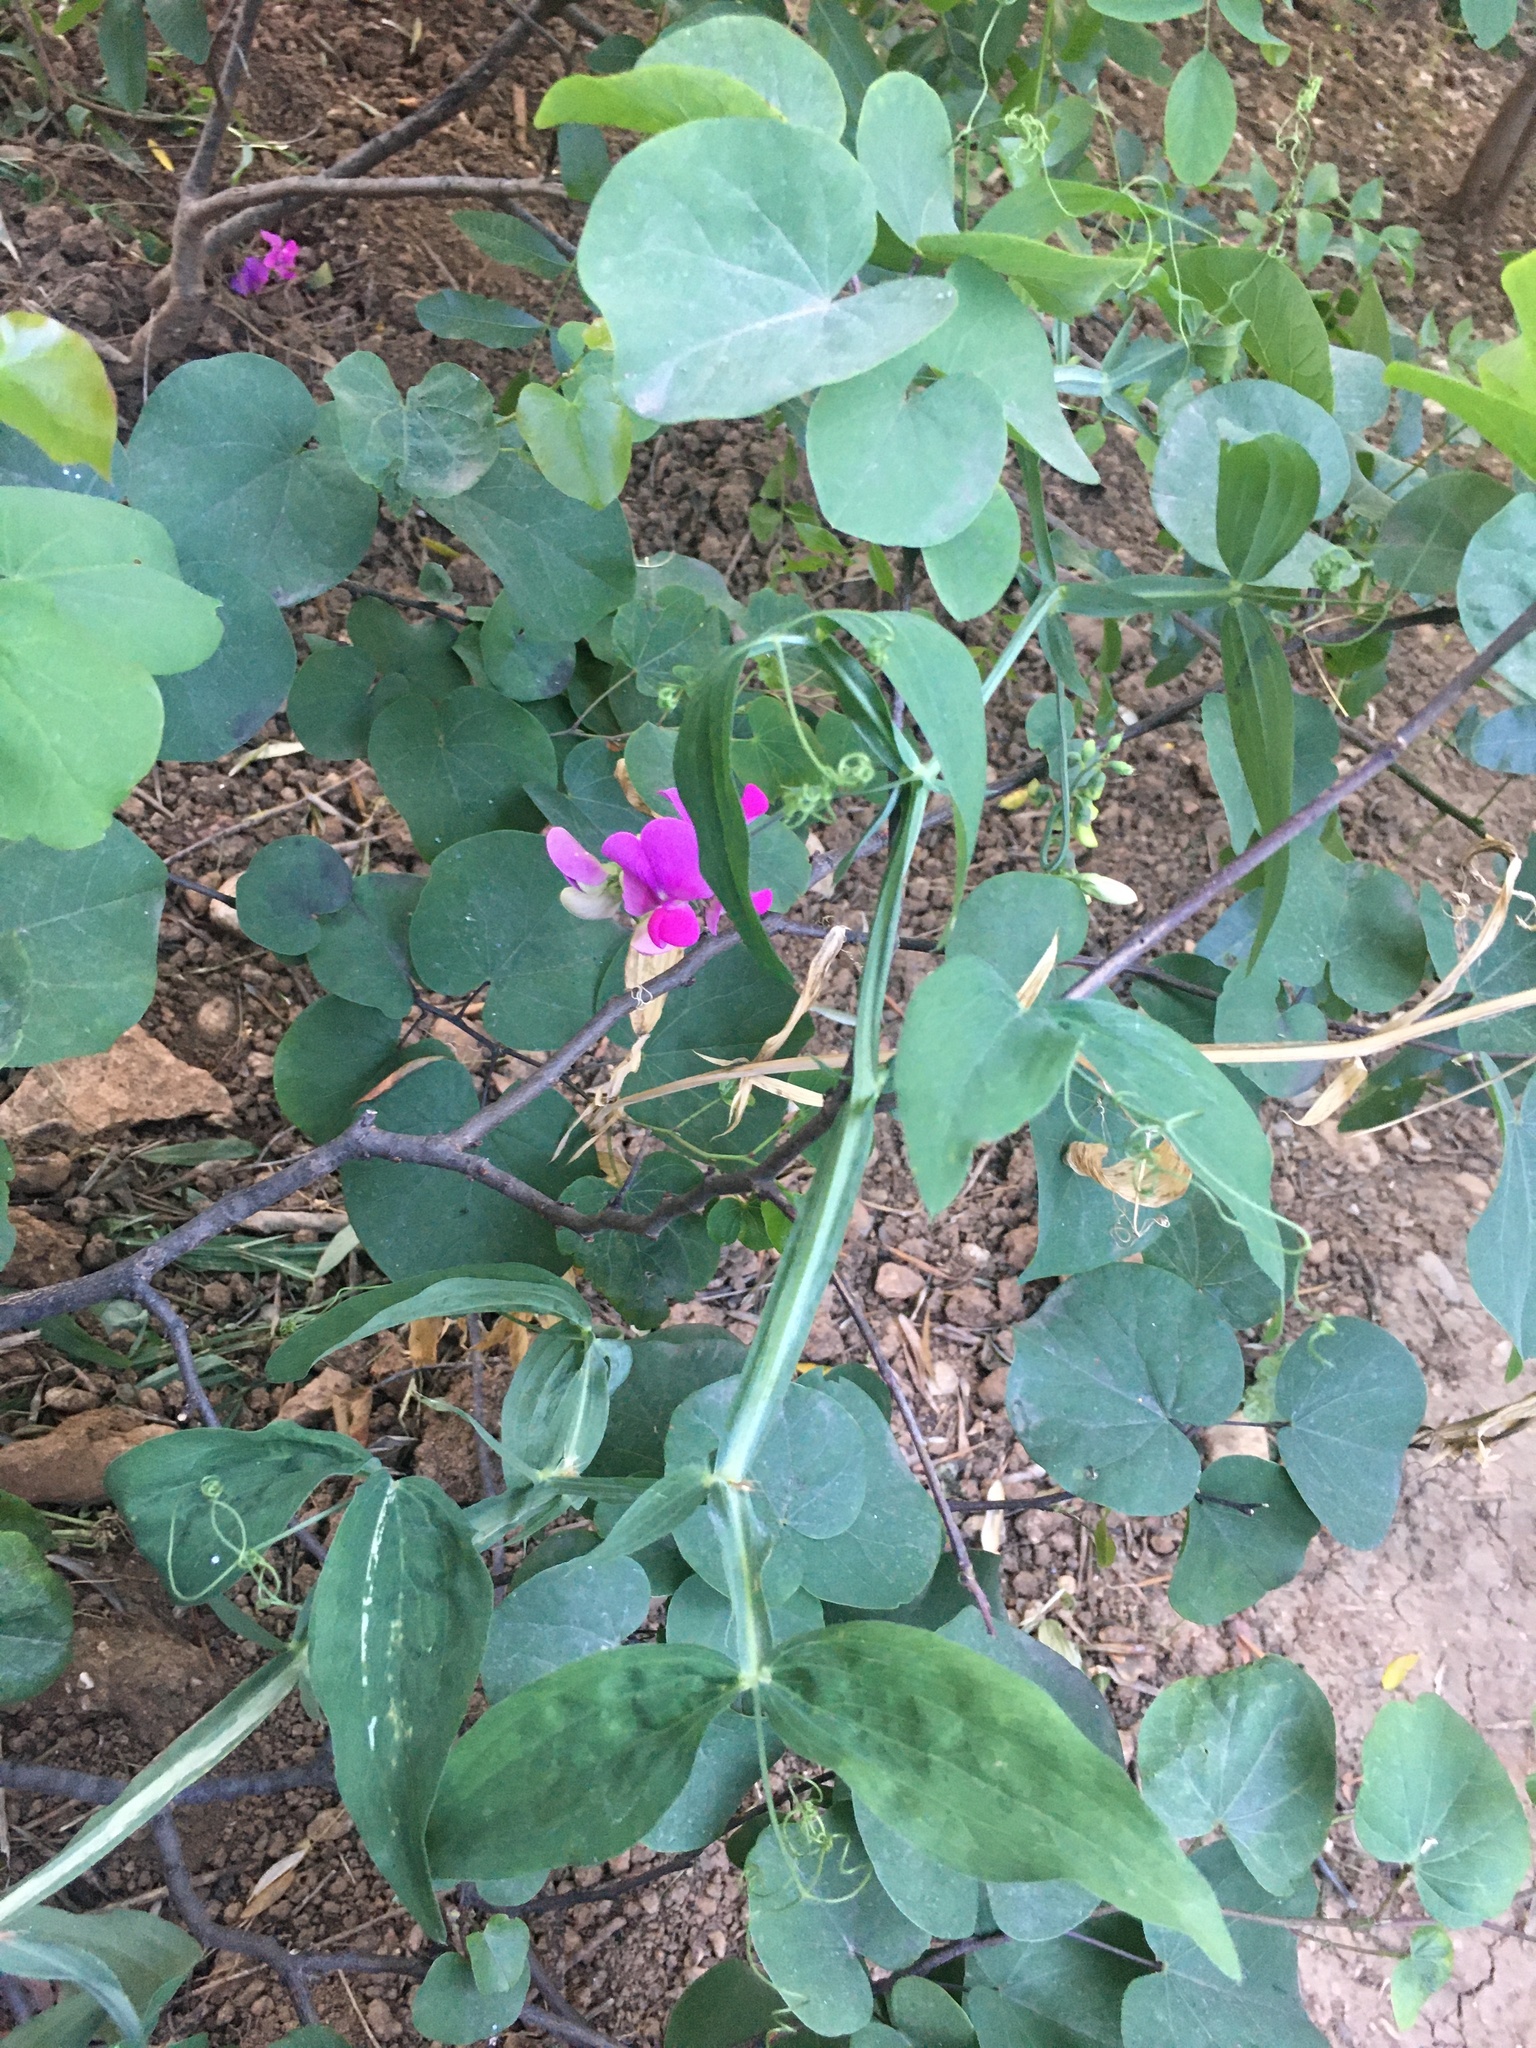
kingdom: Plantae
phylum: Tracheophyta
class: Magnoliopsida
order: Fabales
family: Fabaceae
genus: Lathyrus
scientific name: Lathyrus latifolius
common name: Perennial pea
